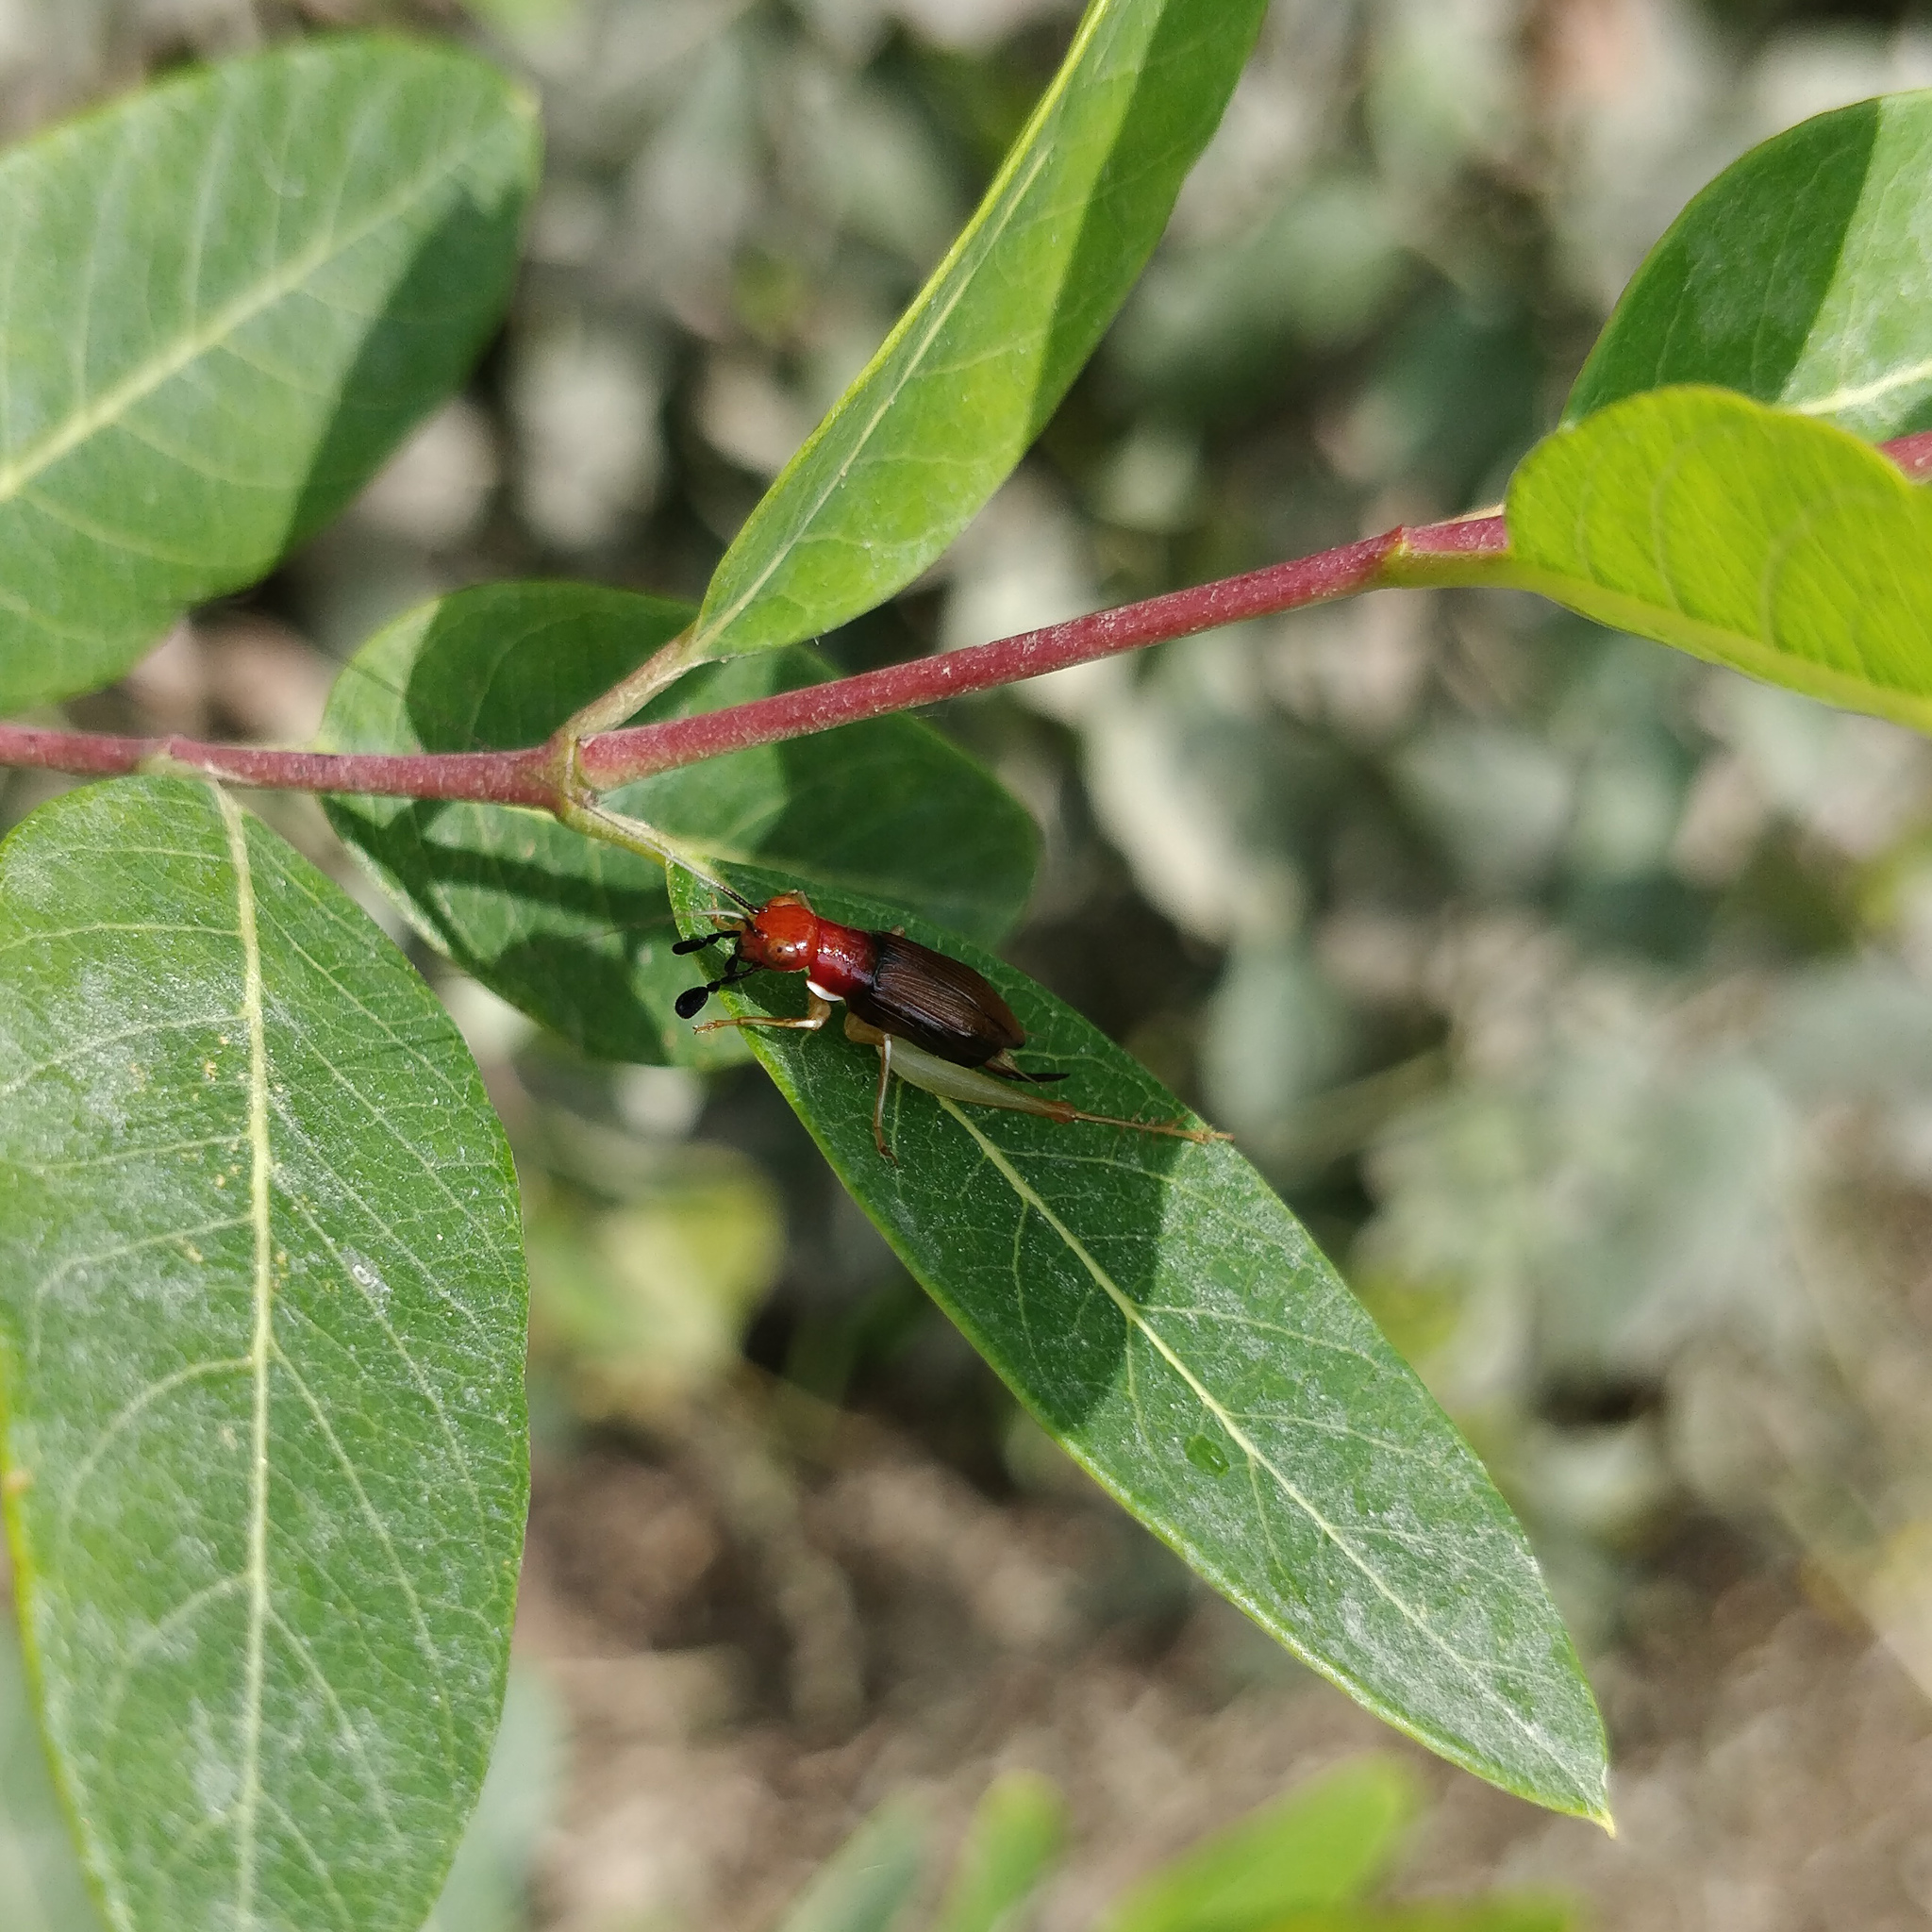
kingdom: Animalia
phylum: Arthropoda
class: Insecta
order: Orthoptera
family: Trigonidiidae
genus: Phyllopalpus
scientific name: Phyllopalpus pulchellus
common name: Handsome trig
